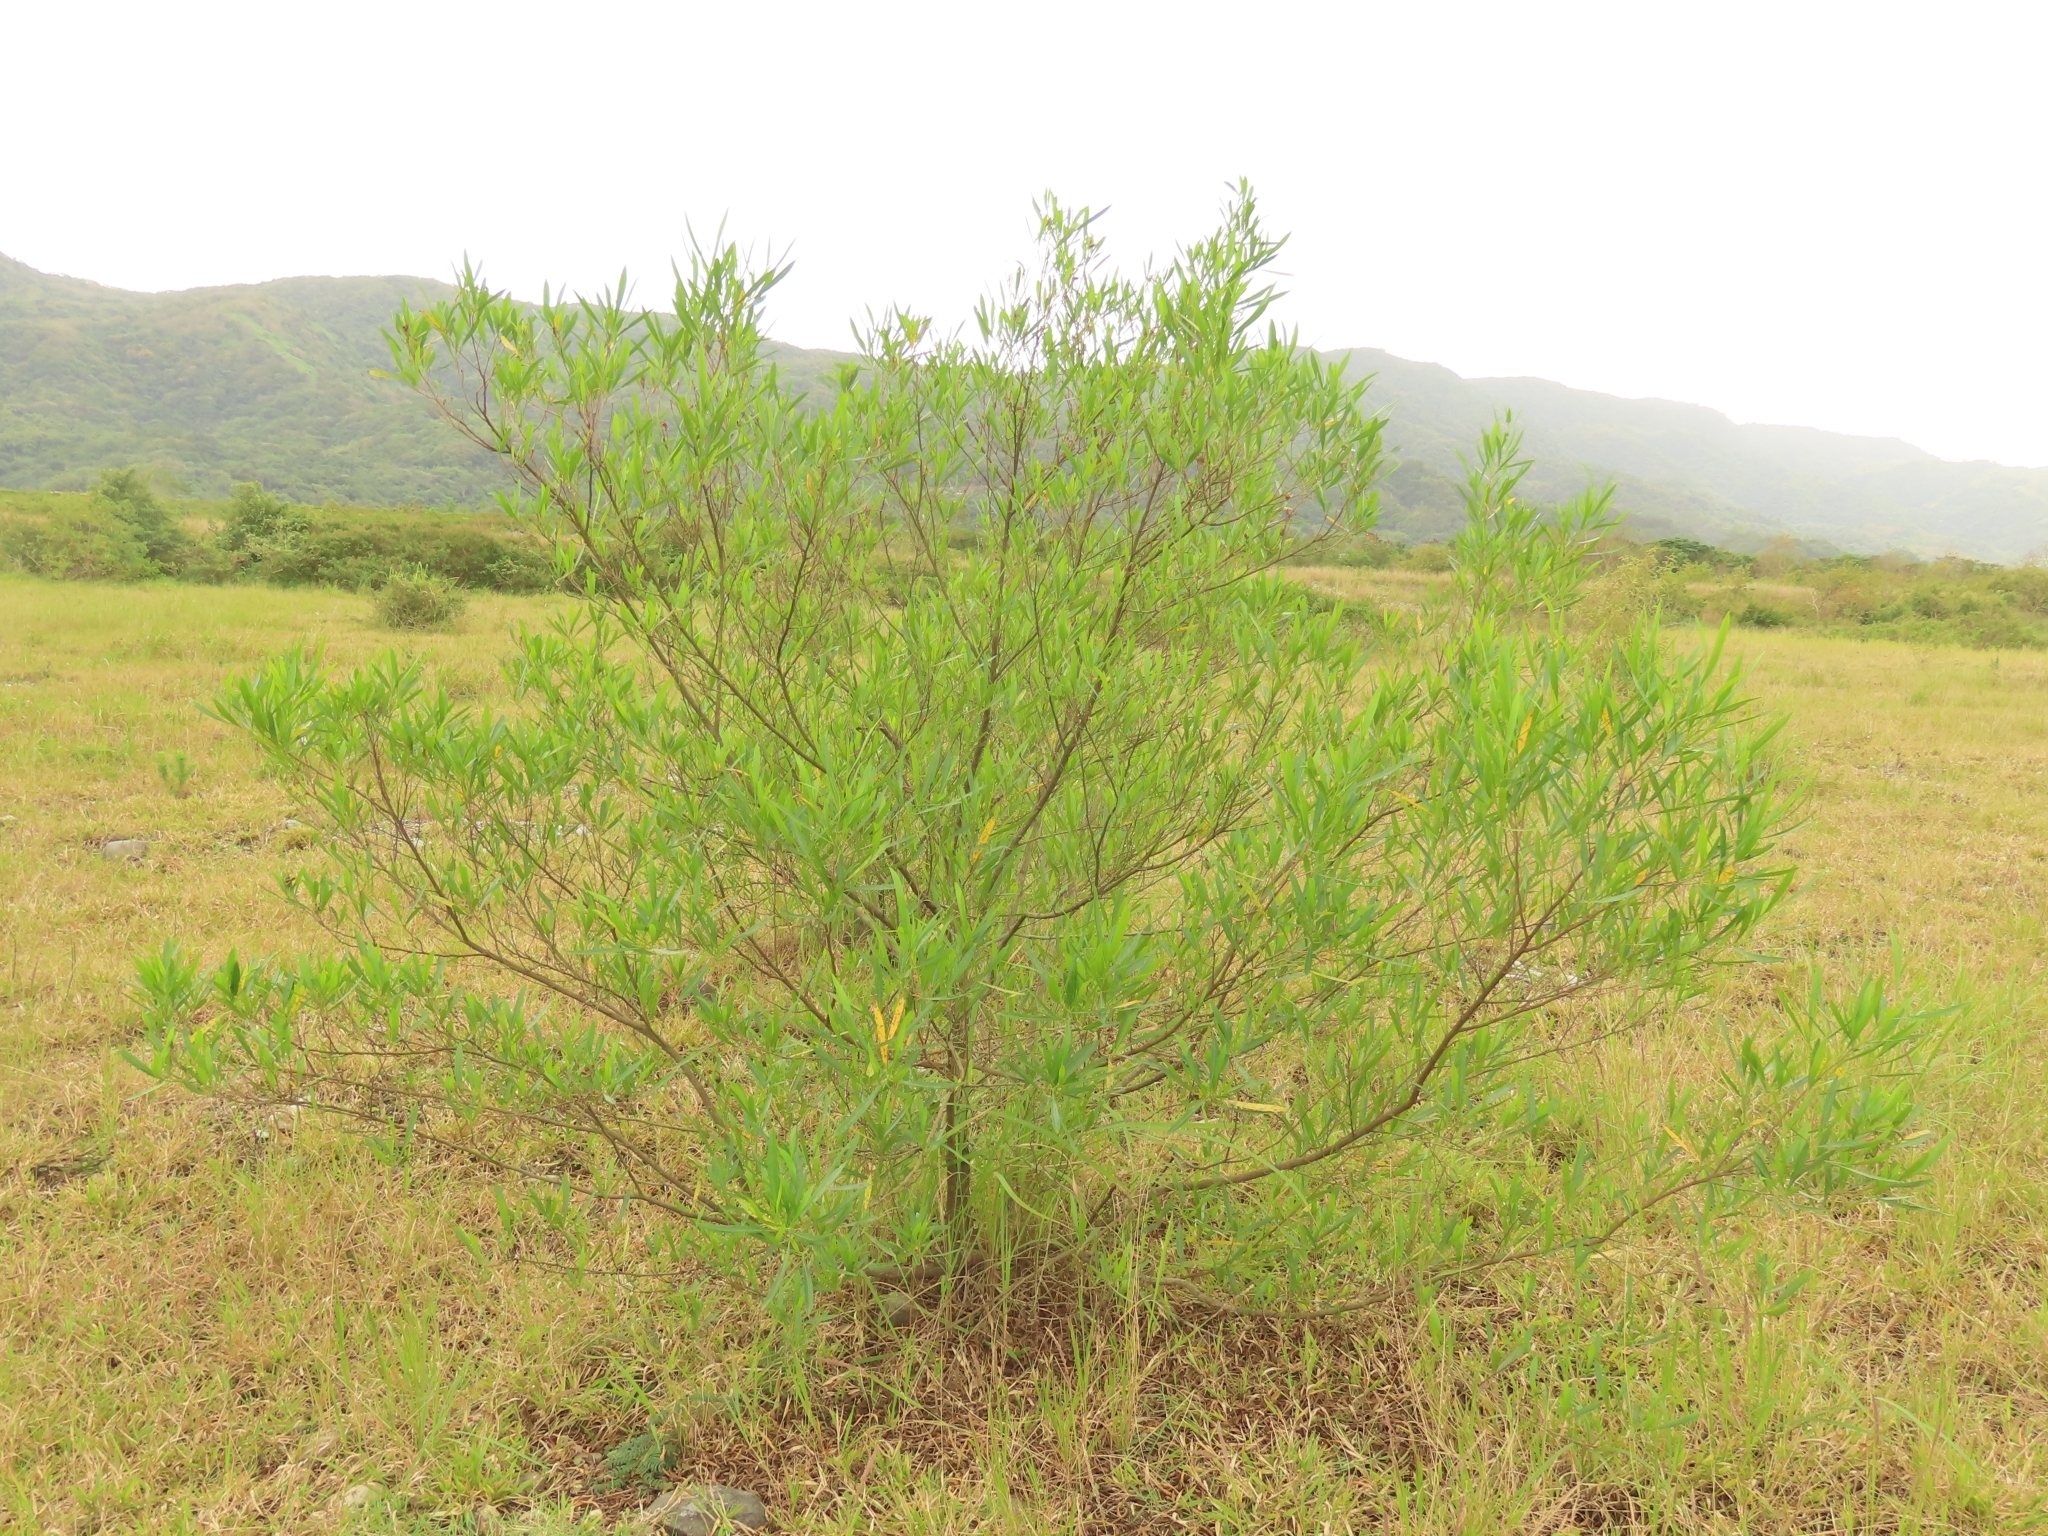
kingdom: Plantae
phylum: Tracheophyta
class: Magnoliopsida
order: Sapindales
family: Sapindaceae
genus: Dodonaea
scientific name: Dodonaea viscosa
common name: Hopbush
